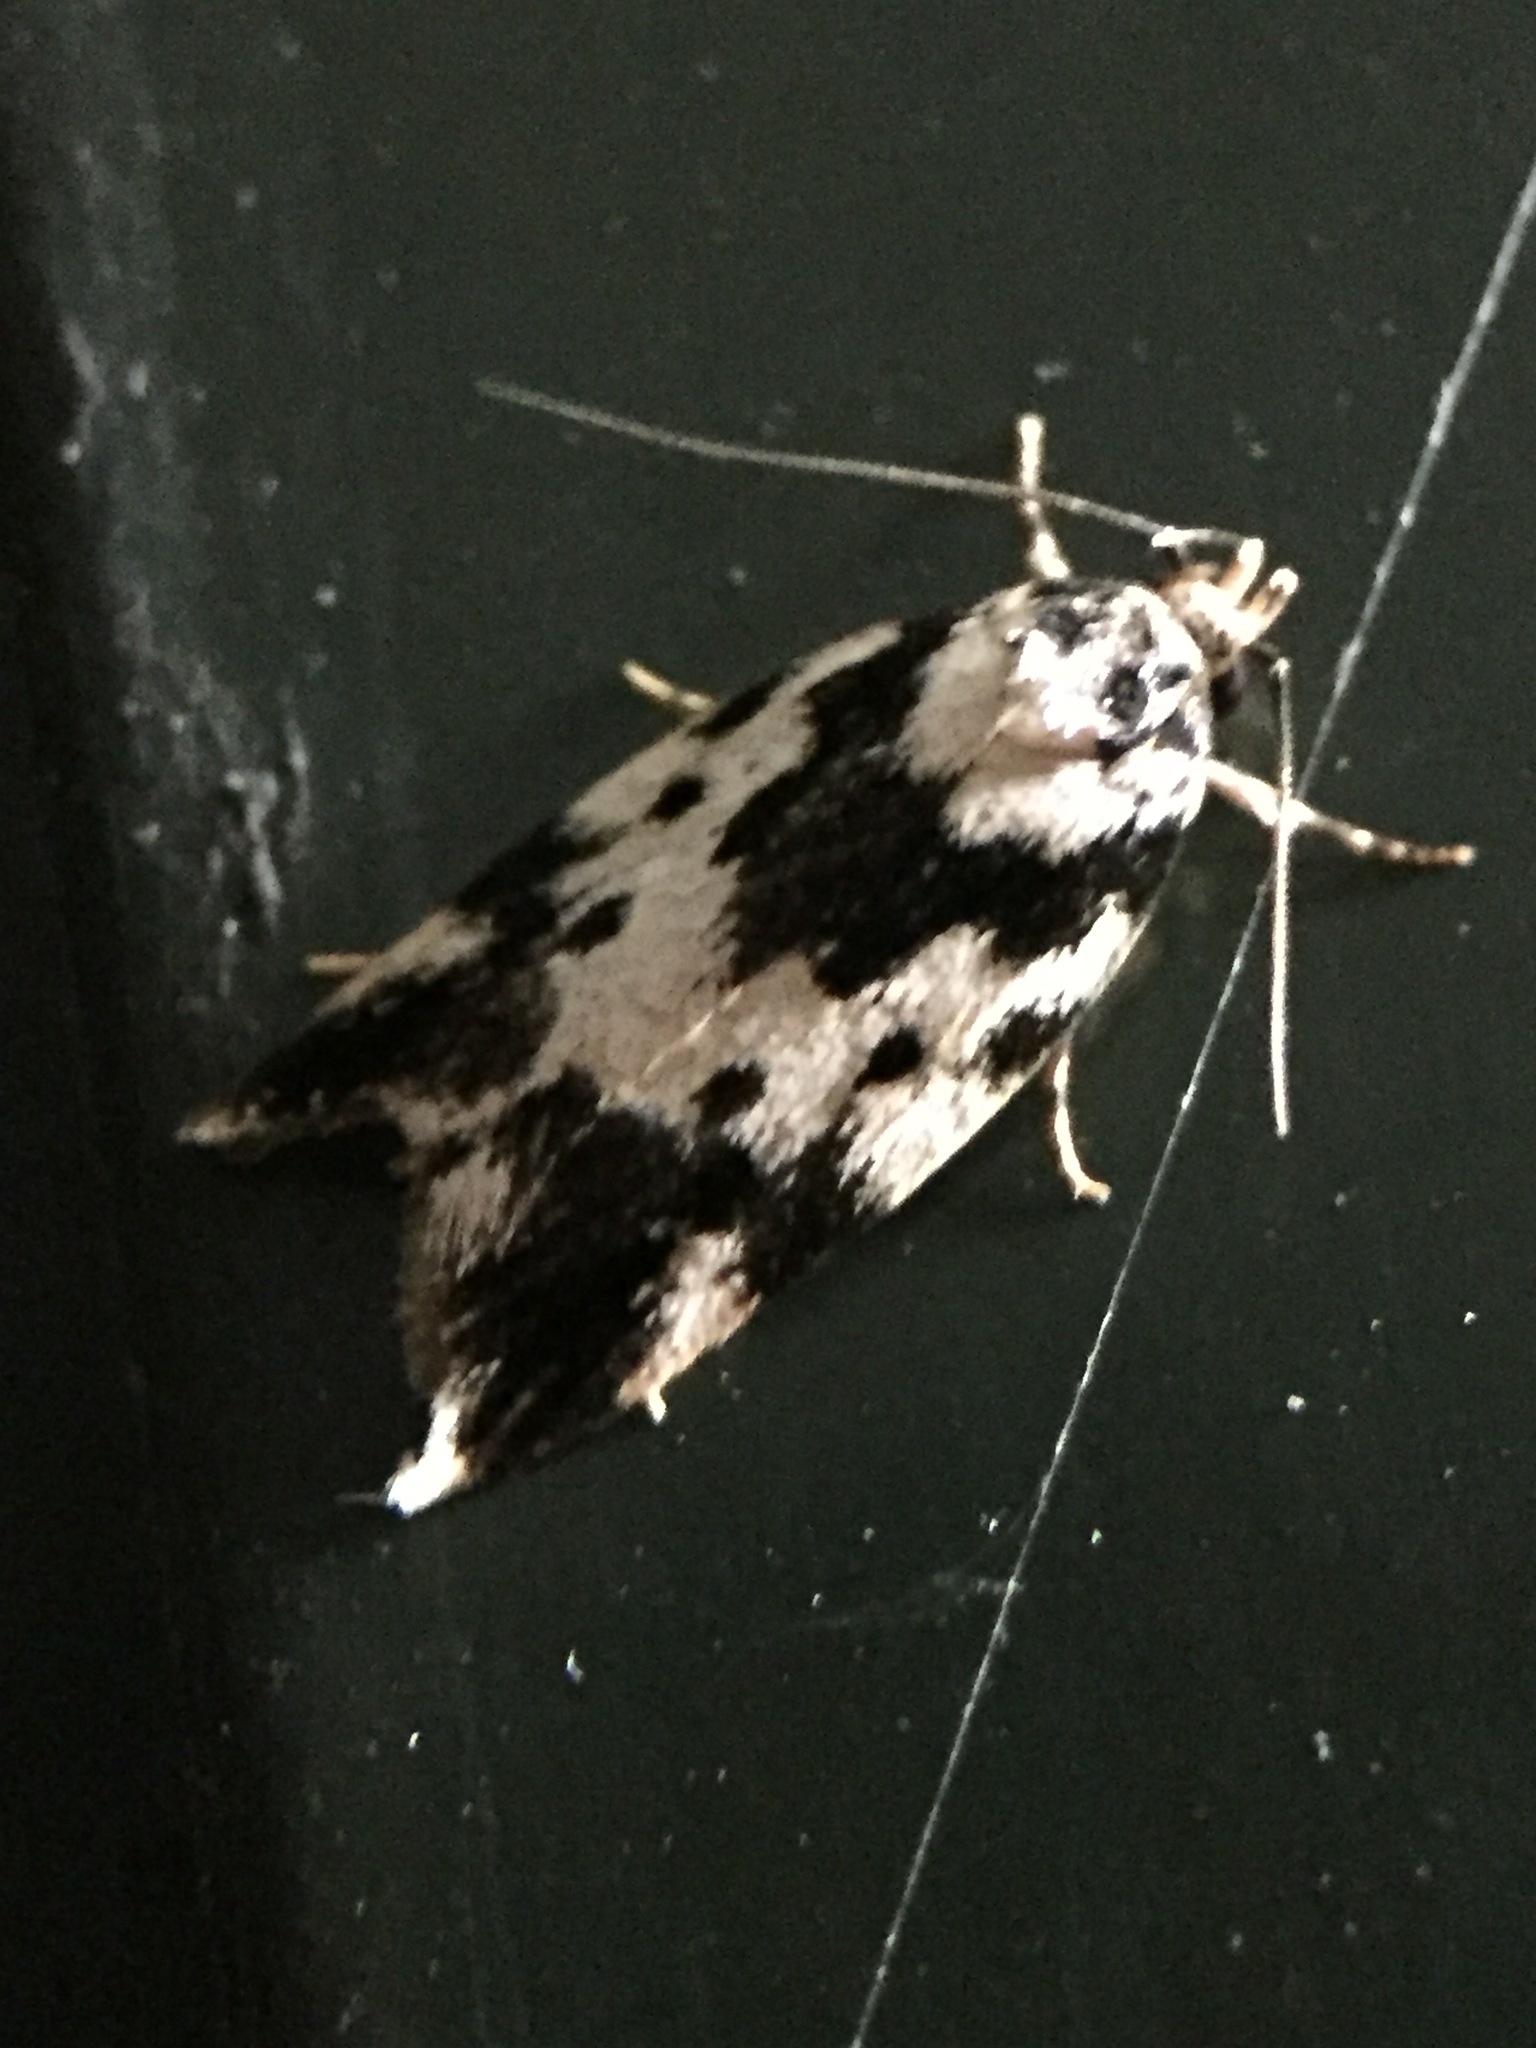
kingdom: Animalia
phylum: Arthropoda
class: Insecta
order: Lepidoptera
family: Oecophoridae
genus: Barea
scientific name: Barea confusella
